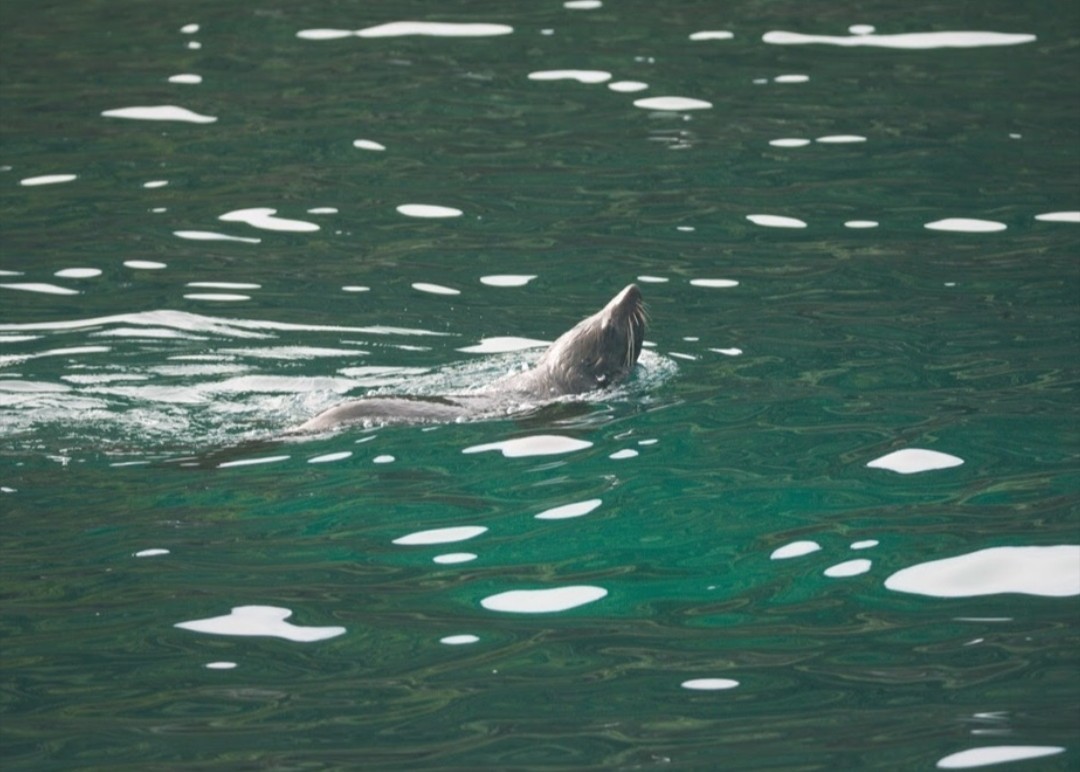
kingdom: Animalia
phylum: Chordata
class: Mammalia
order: Carnivora
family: Otariidae
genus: Arctocephalus
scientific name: Arctocephalus forsteri
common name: New zealand fur seal
